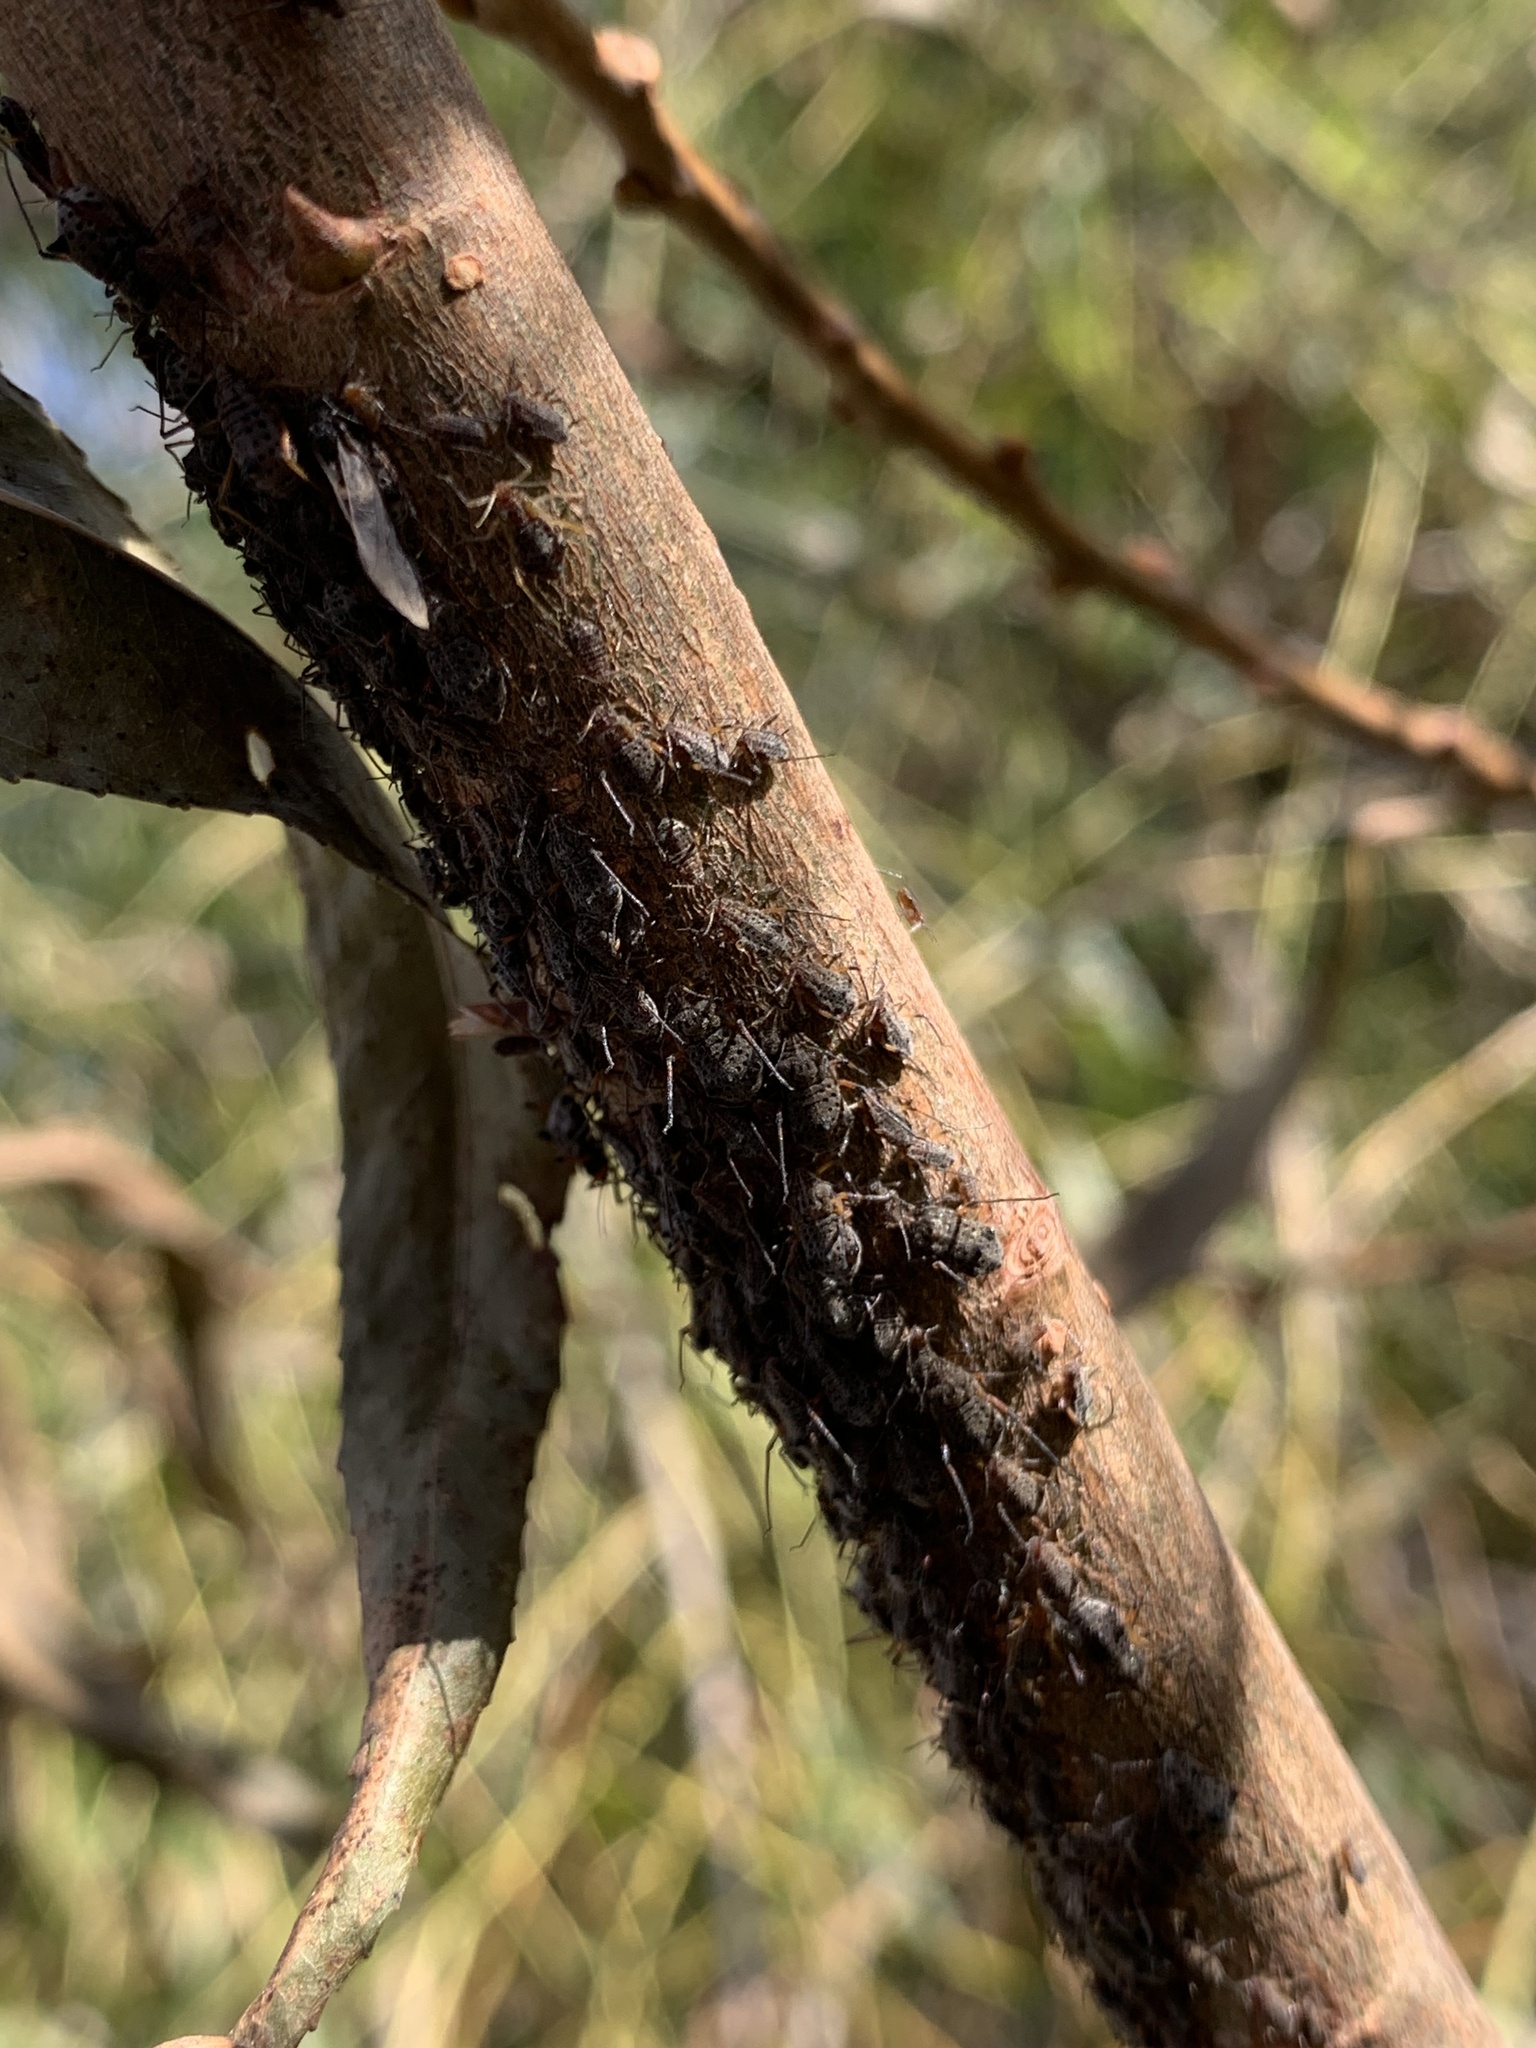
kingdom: Animalia
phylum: Arthropoda
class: Insecta
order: Hemiptera
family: Aphididae
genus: Tuberolachnus
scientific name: Tuberolachnus salignus
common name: Giant willow aphid
